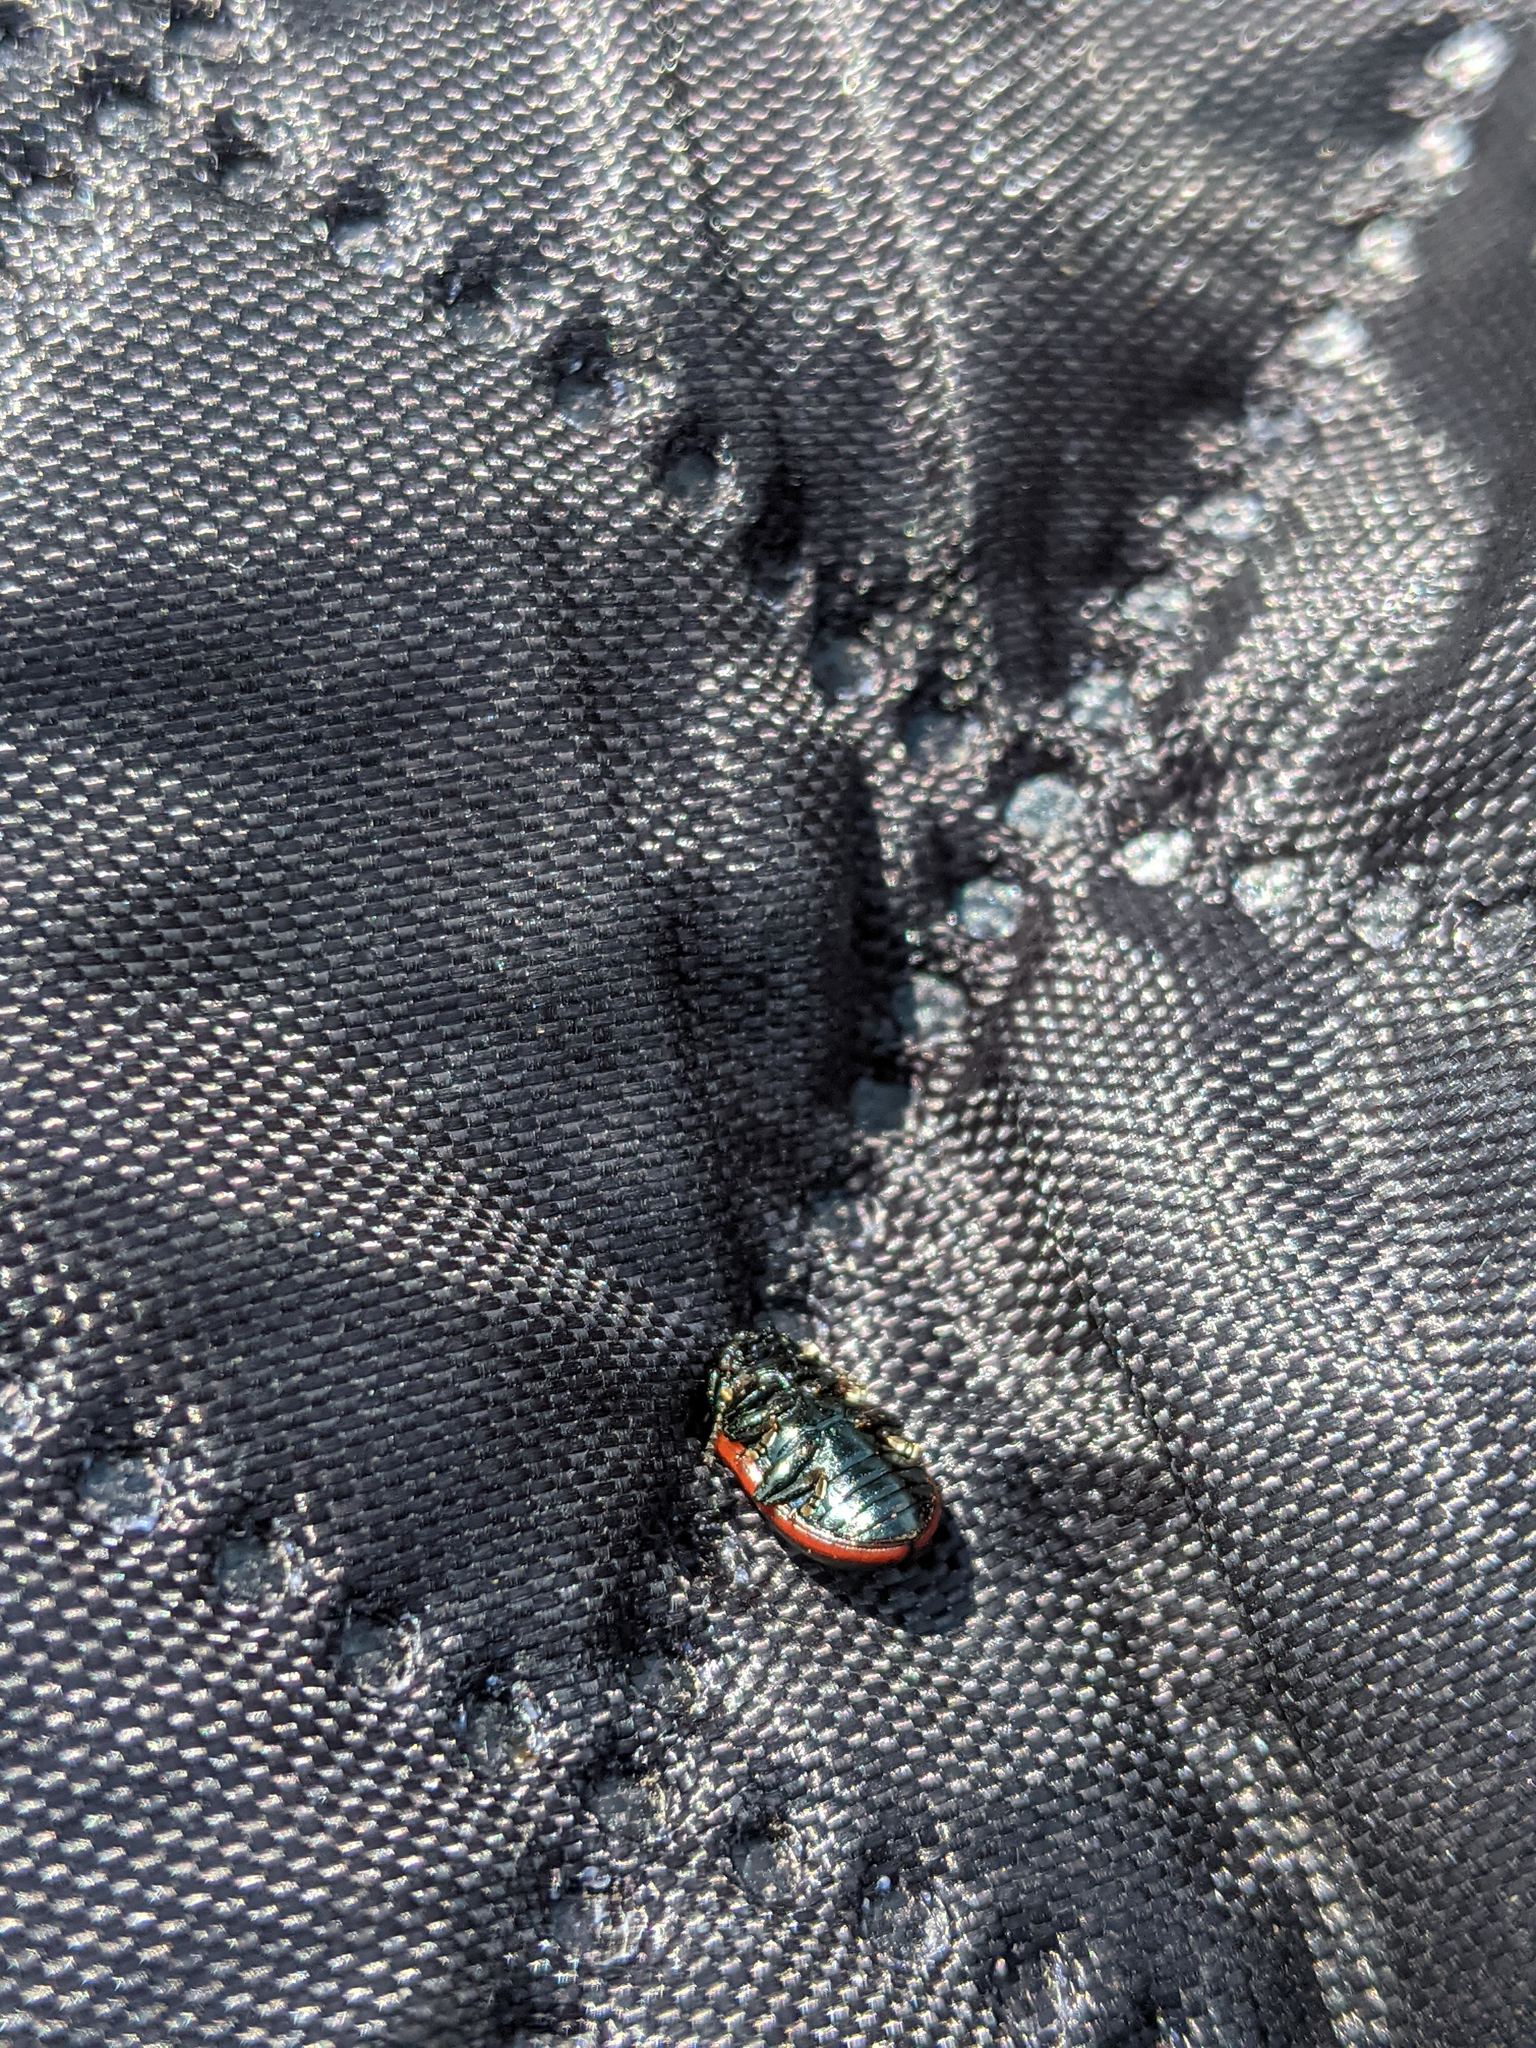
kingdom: Animalia
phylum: Arthropoda
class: Insecta
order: Coleoptera
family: Chrysomelidae
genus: Chrysolina
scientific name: Chrysolina marginata
